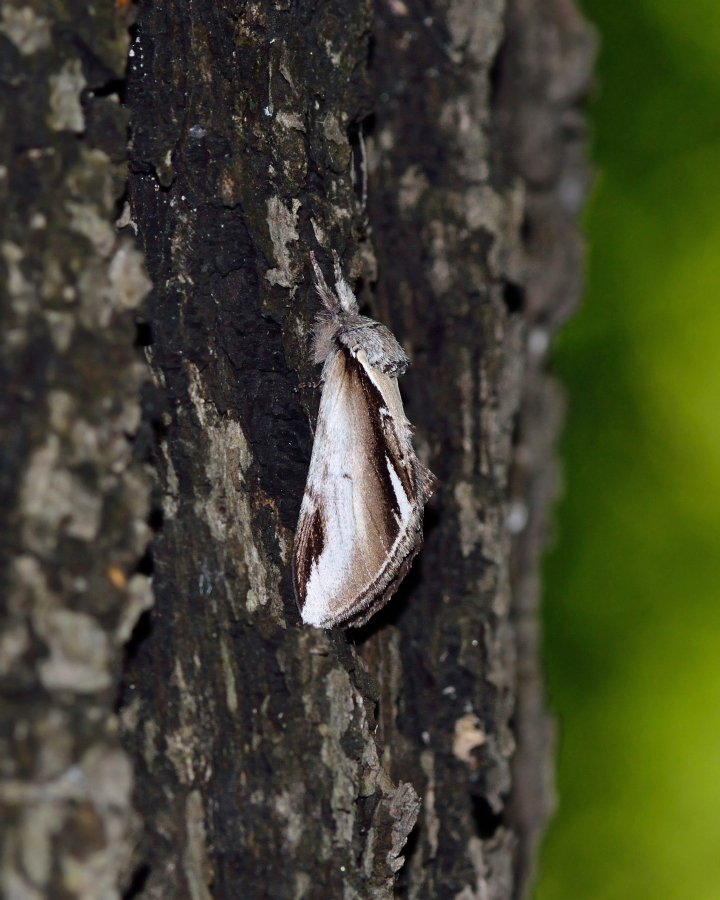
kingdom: Animalia
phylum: Arthropoda
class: Insecta
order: Lepidoptera
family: Notodontidae
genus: Pheosia
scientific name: Pheosia gnoma
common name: Lesser swallow prominent
